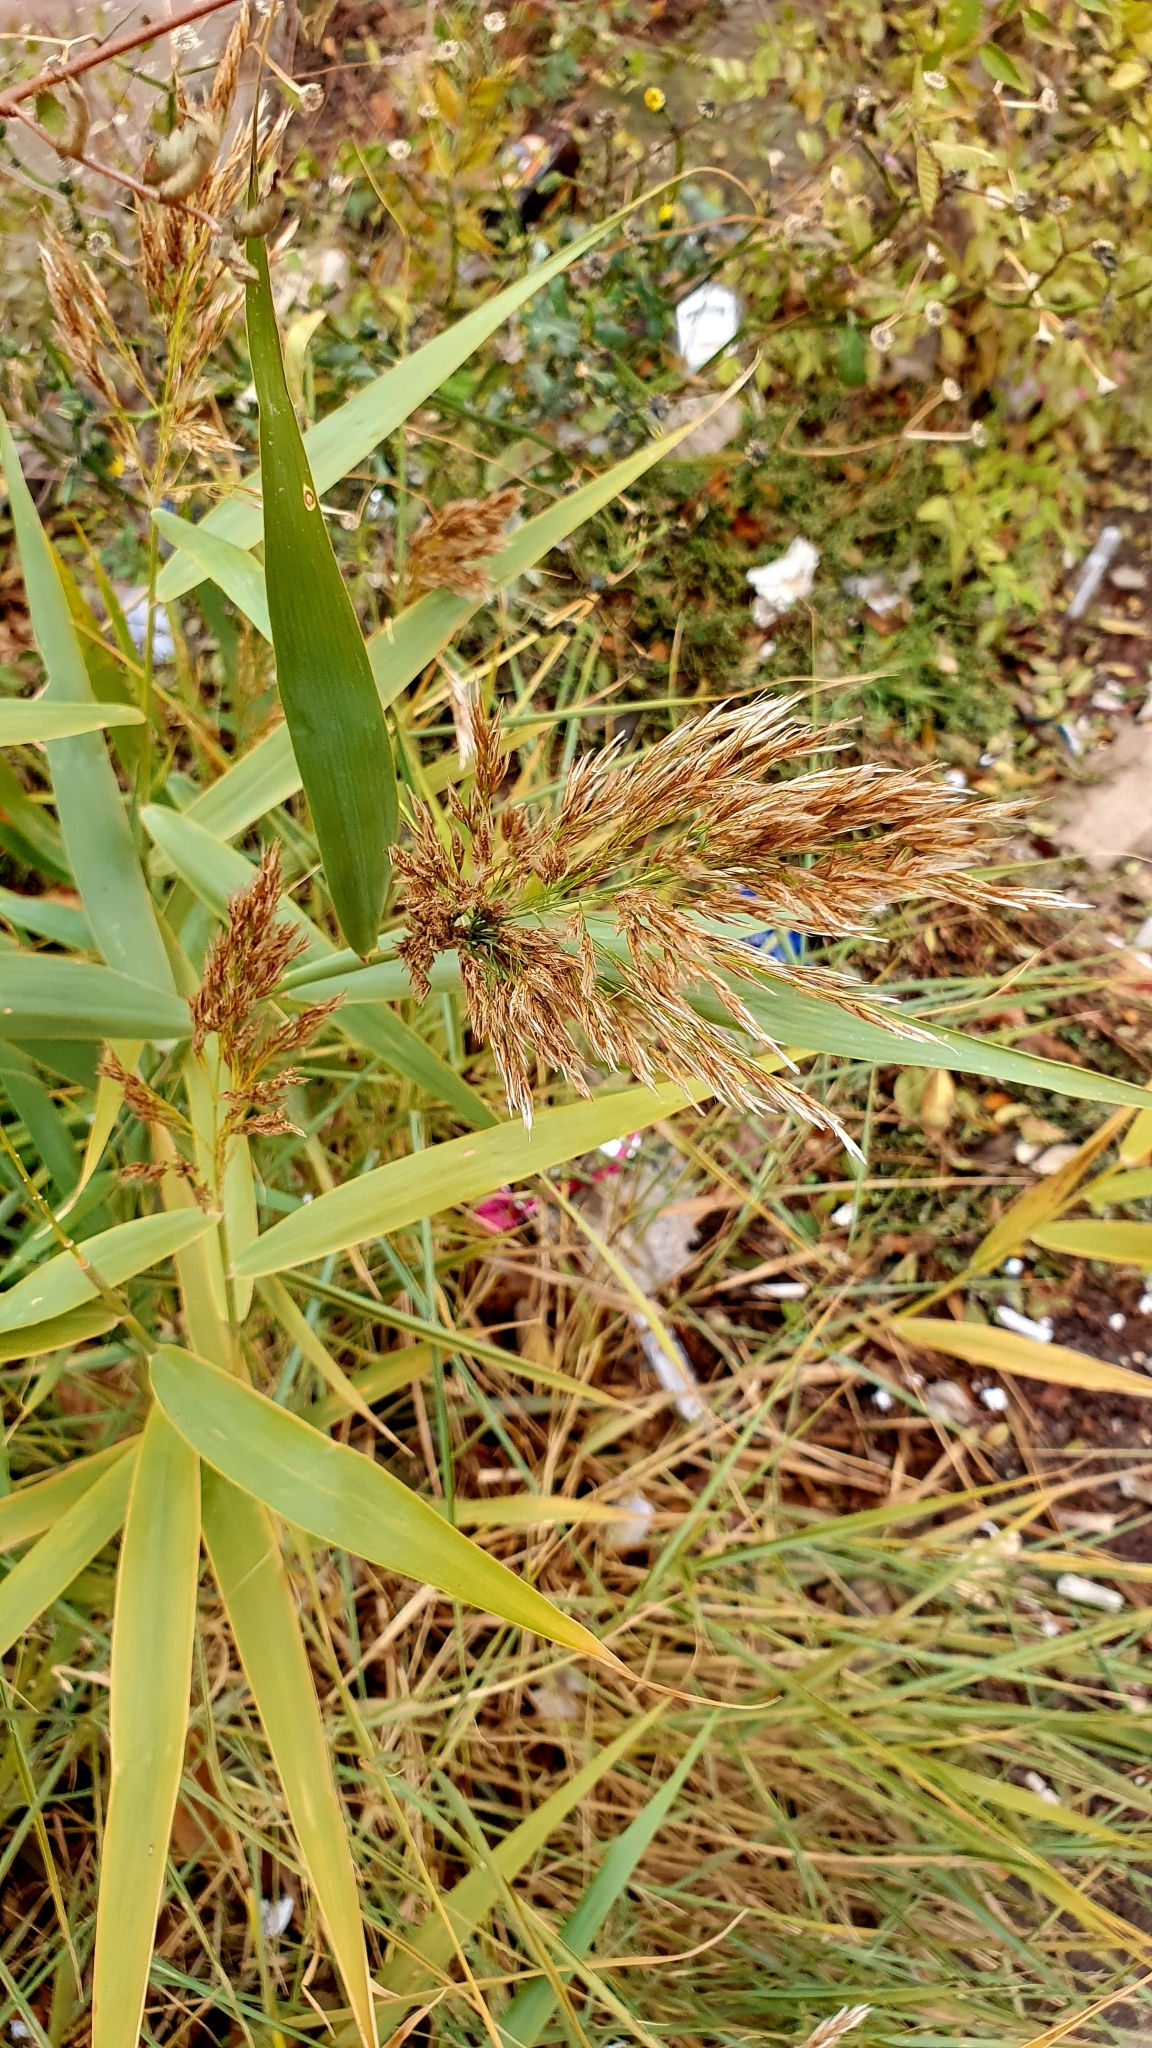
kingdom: Plantae
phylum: Tracheophyta
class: Liliopsida
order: Poales
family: Poaceae
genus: Phragmites
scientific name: Phragmites australis
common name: Common reed
